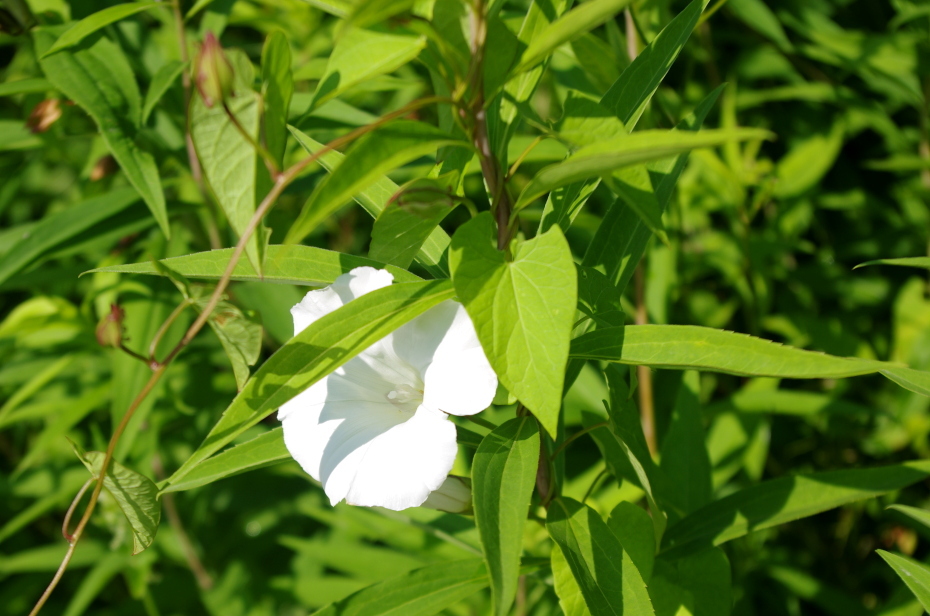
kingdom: Plantae
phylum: Tracheophyta
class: Magnoliopsida
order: Solanales
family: Convolvulaceae
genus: Calystegia
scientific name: Calystegia sepium
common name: Hedge bindweed
